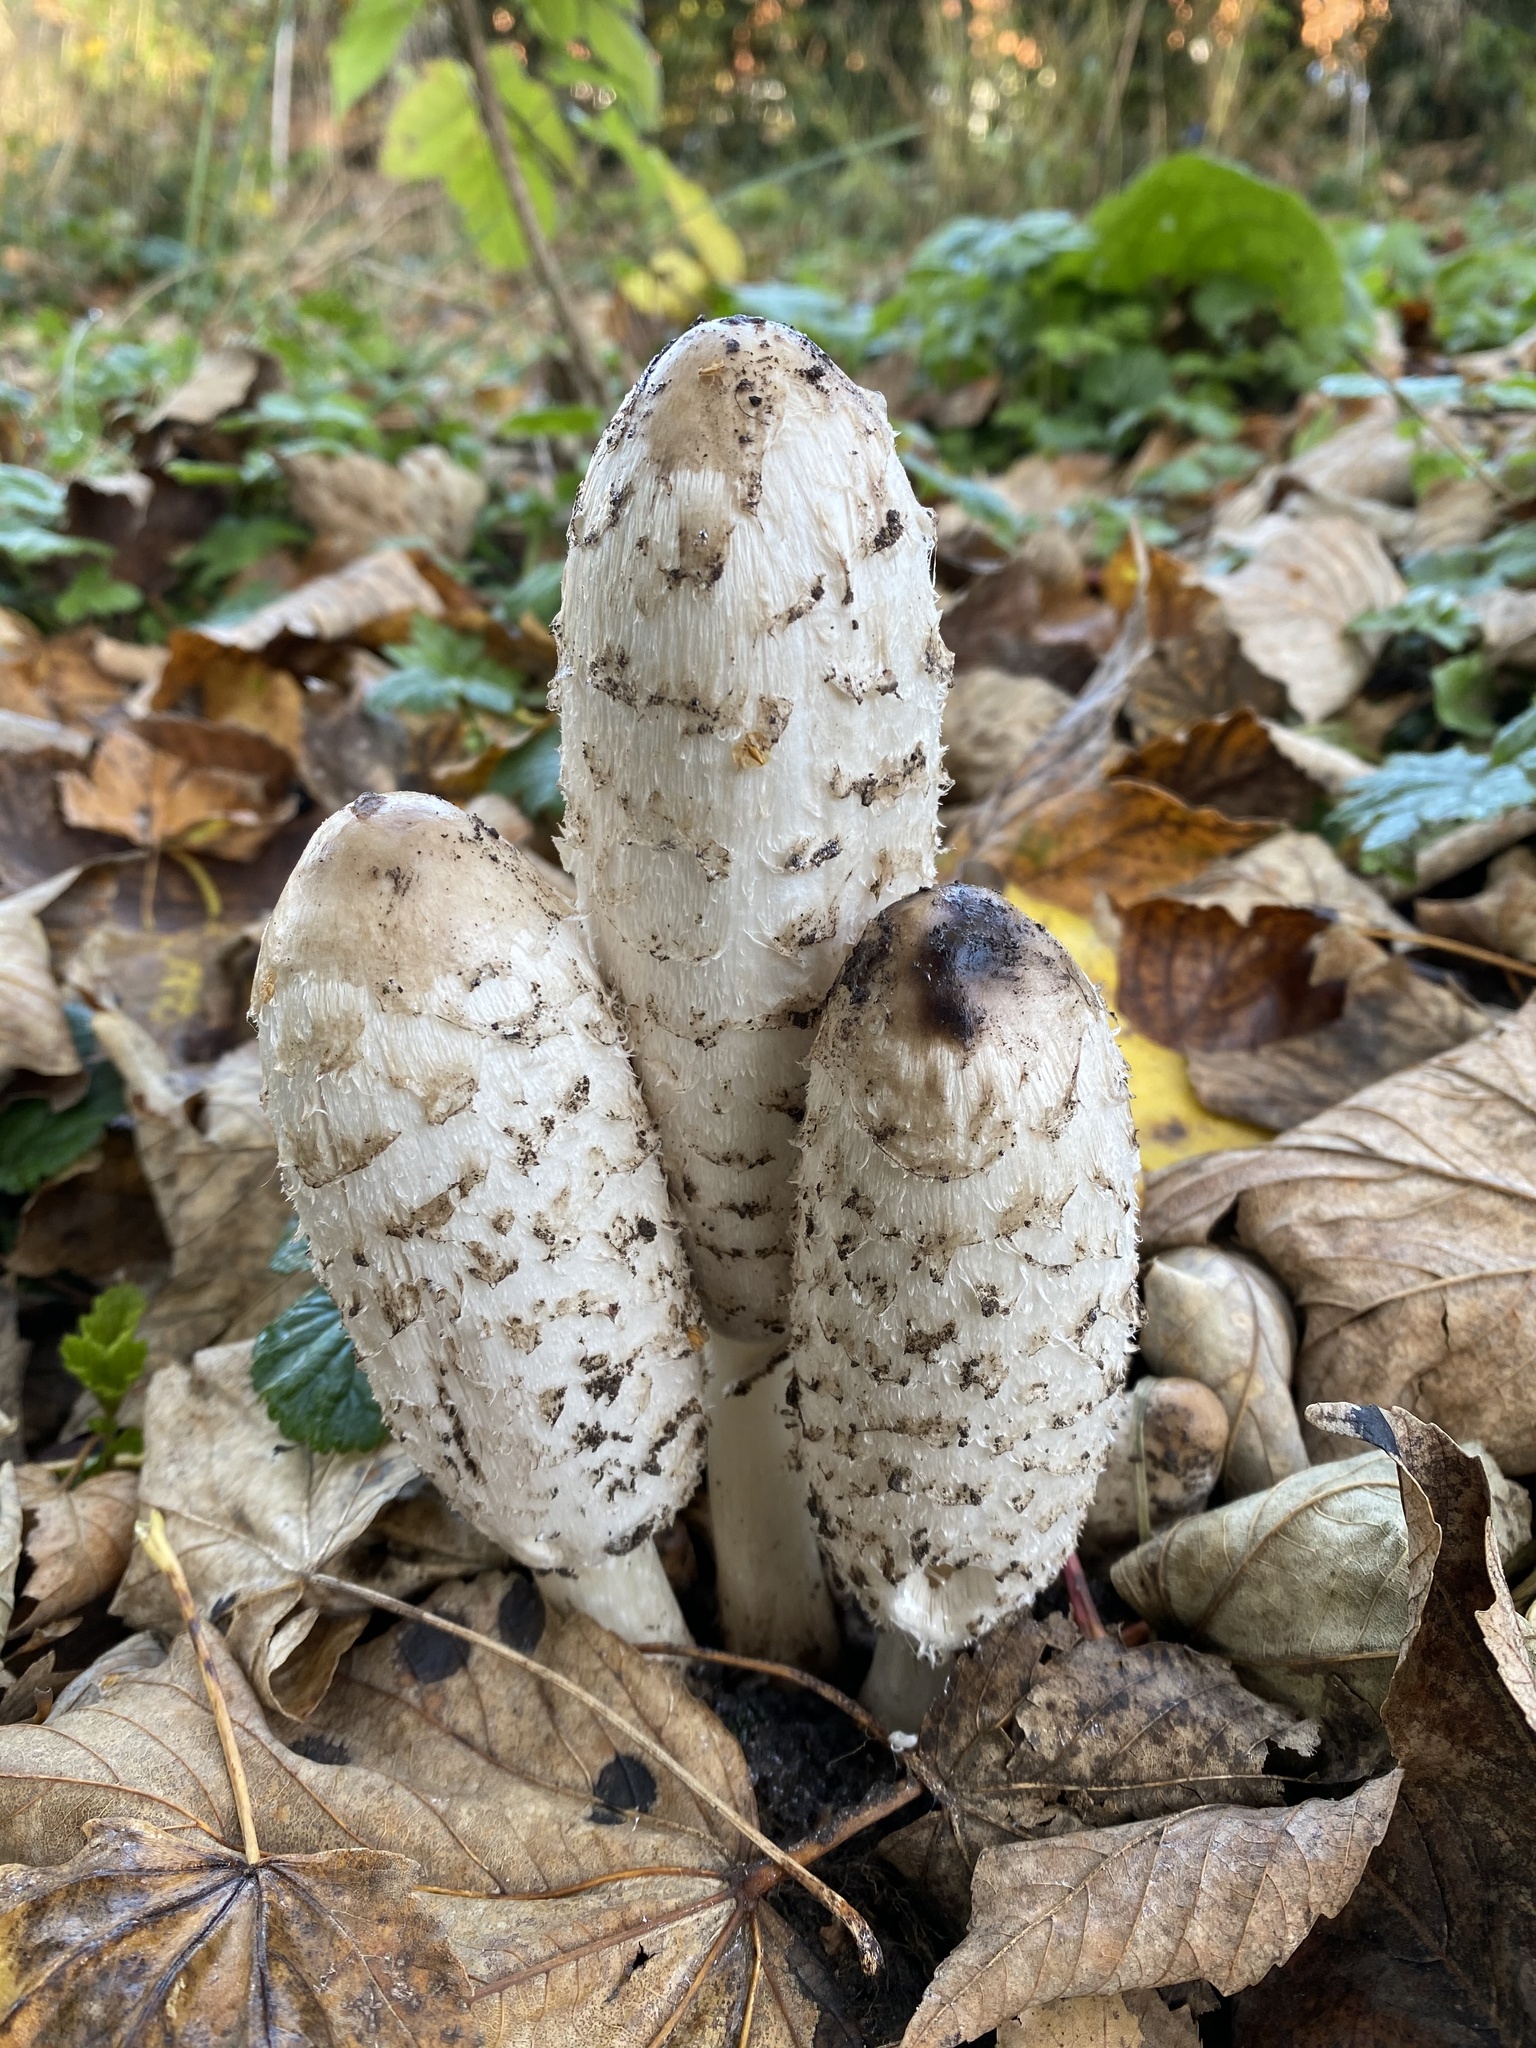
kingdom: Fungi
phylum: Basidiomycota
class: Agaricomycetes
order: Agaricales
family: Agaricaceae
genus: Coprinus
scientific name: Coprinus comatus
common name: Lawyer's wig
